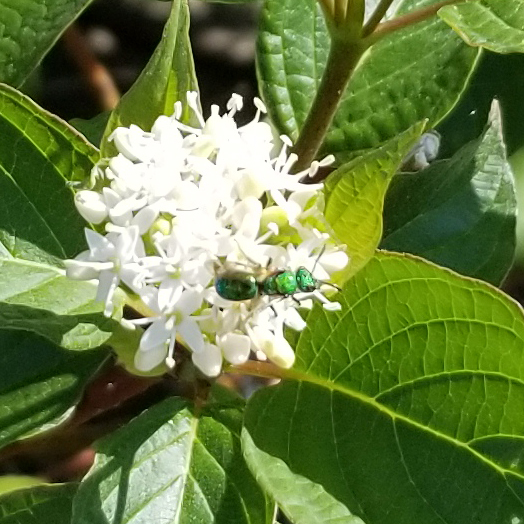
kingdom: Animalia
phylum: Arthropoda
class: Insecta
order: Hymenoptera
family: Halictidae
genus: Augochlora
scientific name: Augochlora pura
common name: Pure green sweat bee
